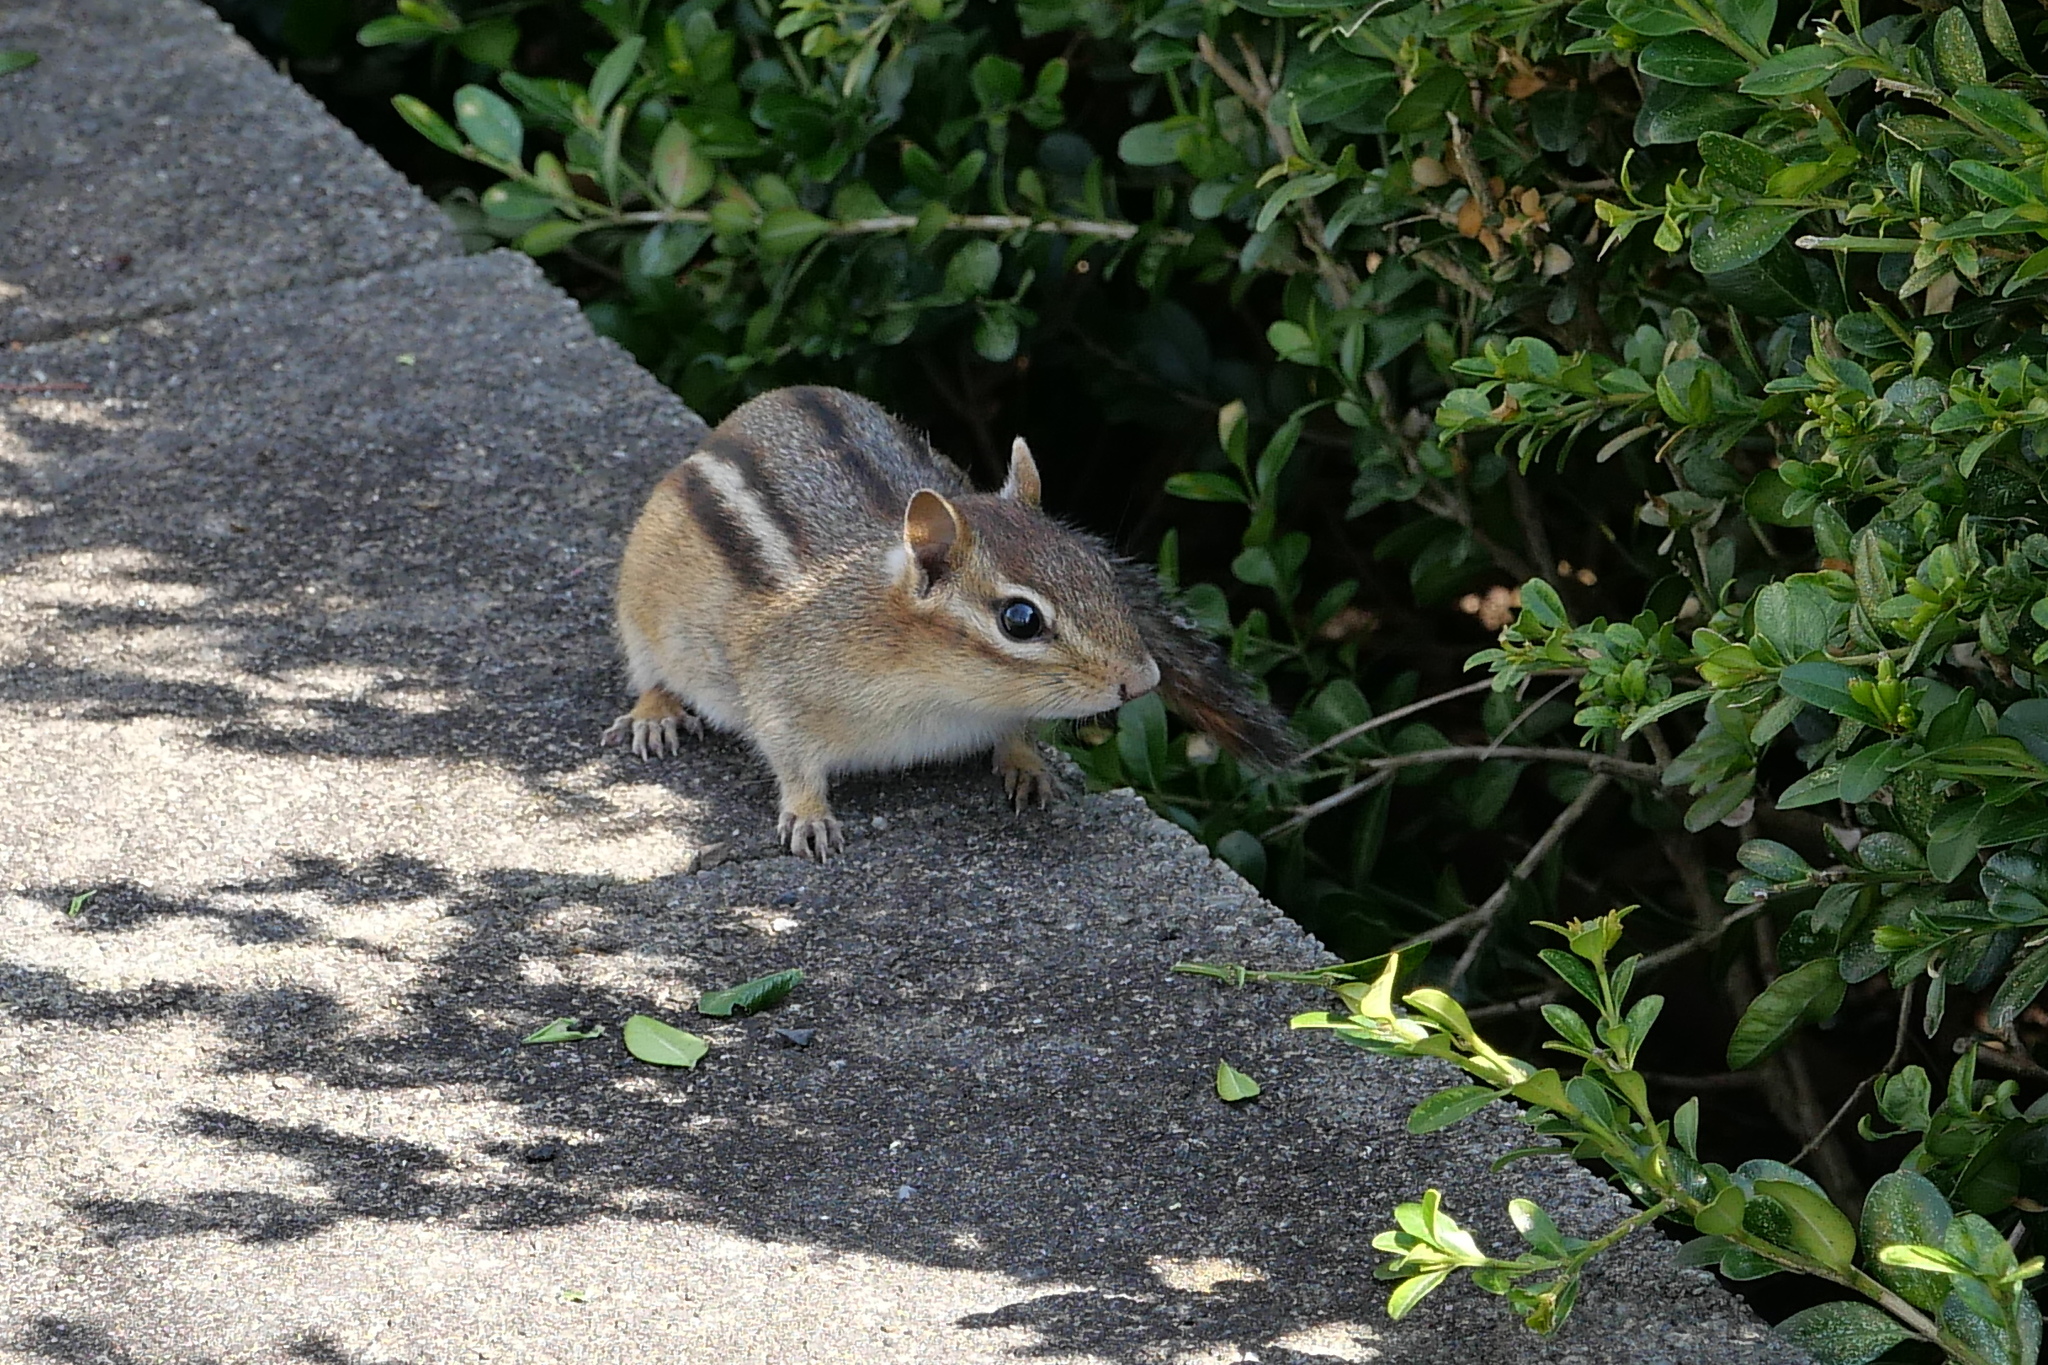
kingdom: Animalia
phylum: Chordata
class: Mammalia
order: Rodentia
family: Sciuridae
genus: Tamias
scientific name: Tamias striatus
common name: Eastern chipmunk
